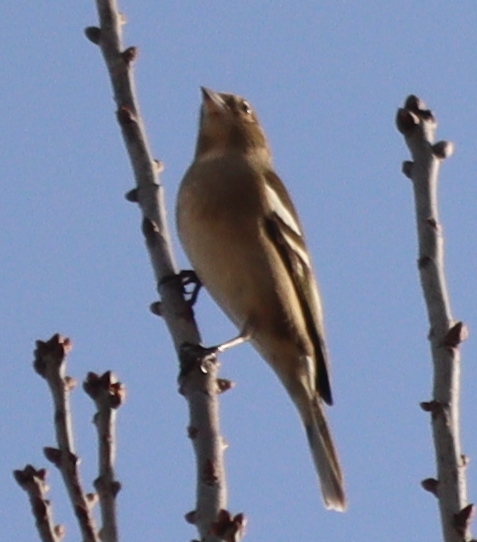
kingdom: Animalia
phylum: Chordata
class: Aves
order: Passeriformes
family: Fringillidae
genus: Fringilla
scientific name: Fringilla coelebs
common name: Common chaffinch
